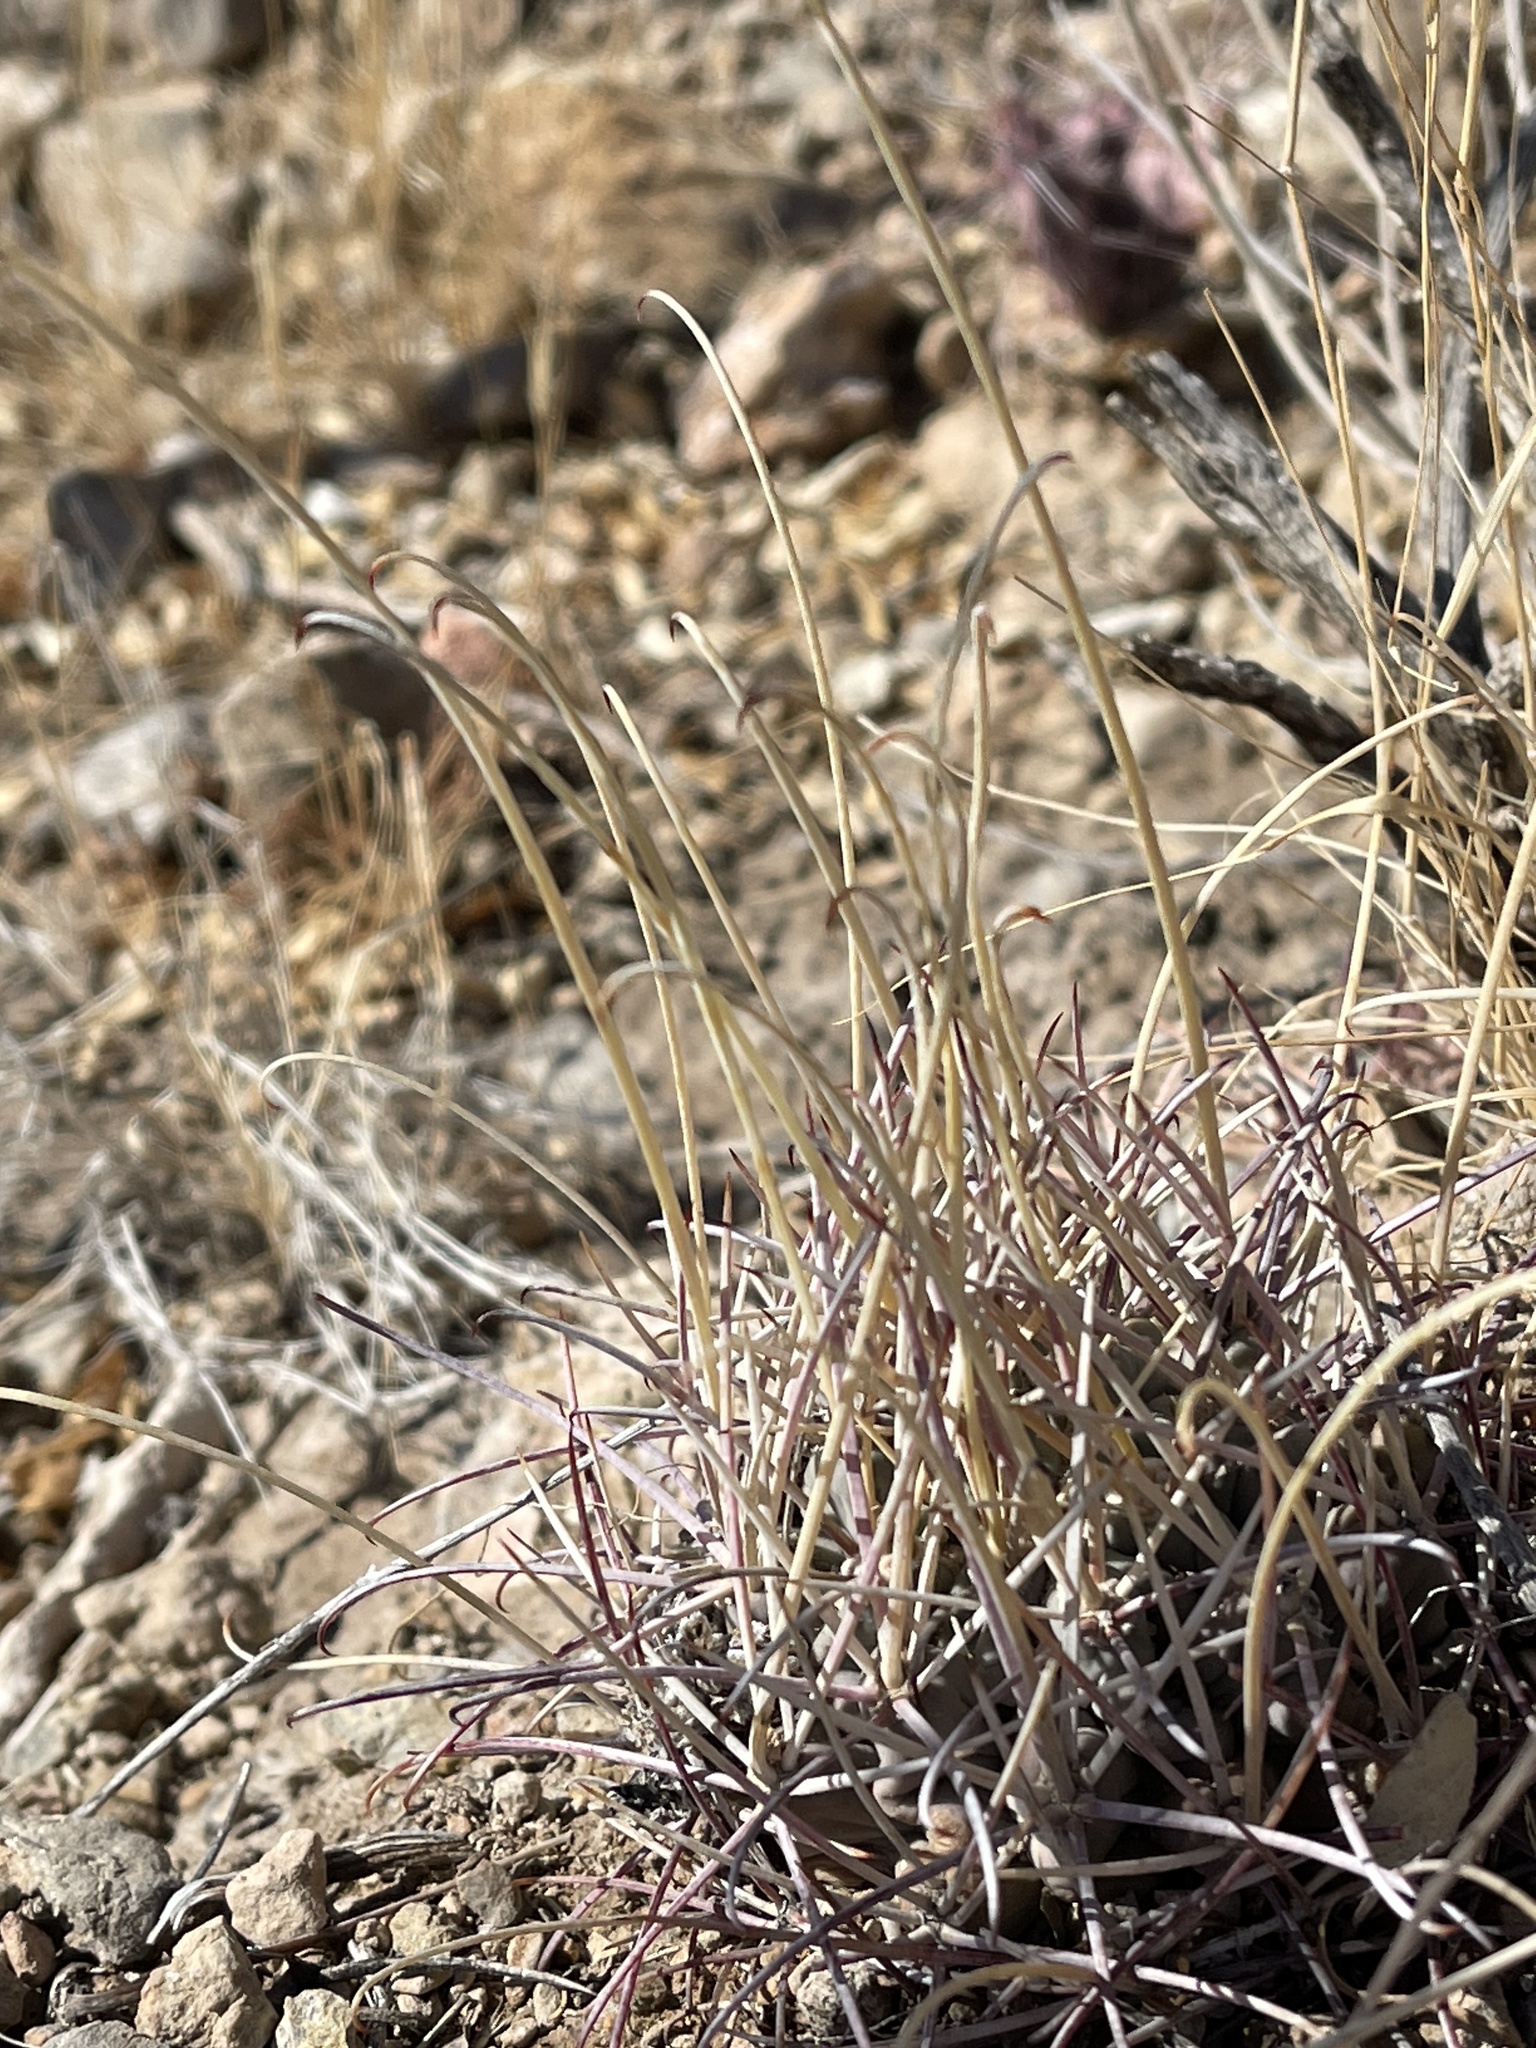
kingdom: Plantae
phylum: Tracheophyta
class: Magnoliopsida
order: Caryophyllales
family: Cactaceae
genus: Ferocactus
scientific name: Ferocactus uncinatus
